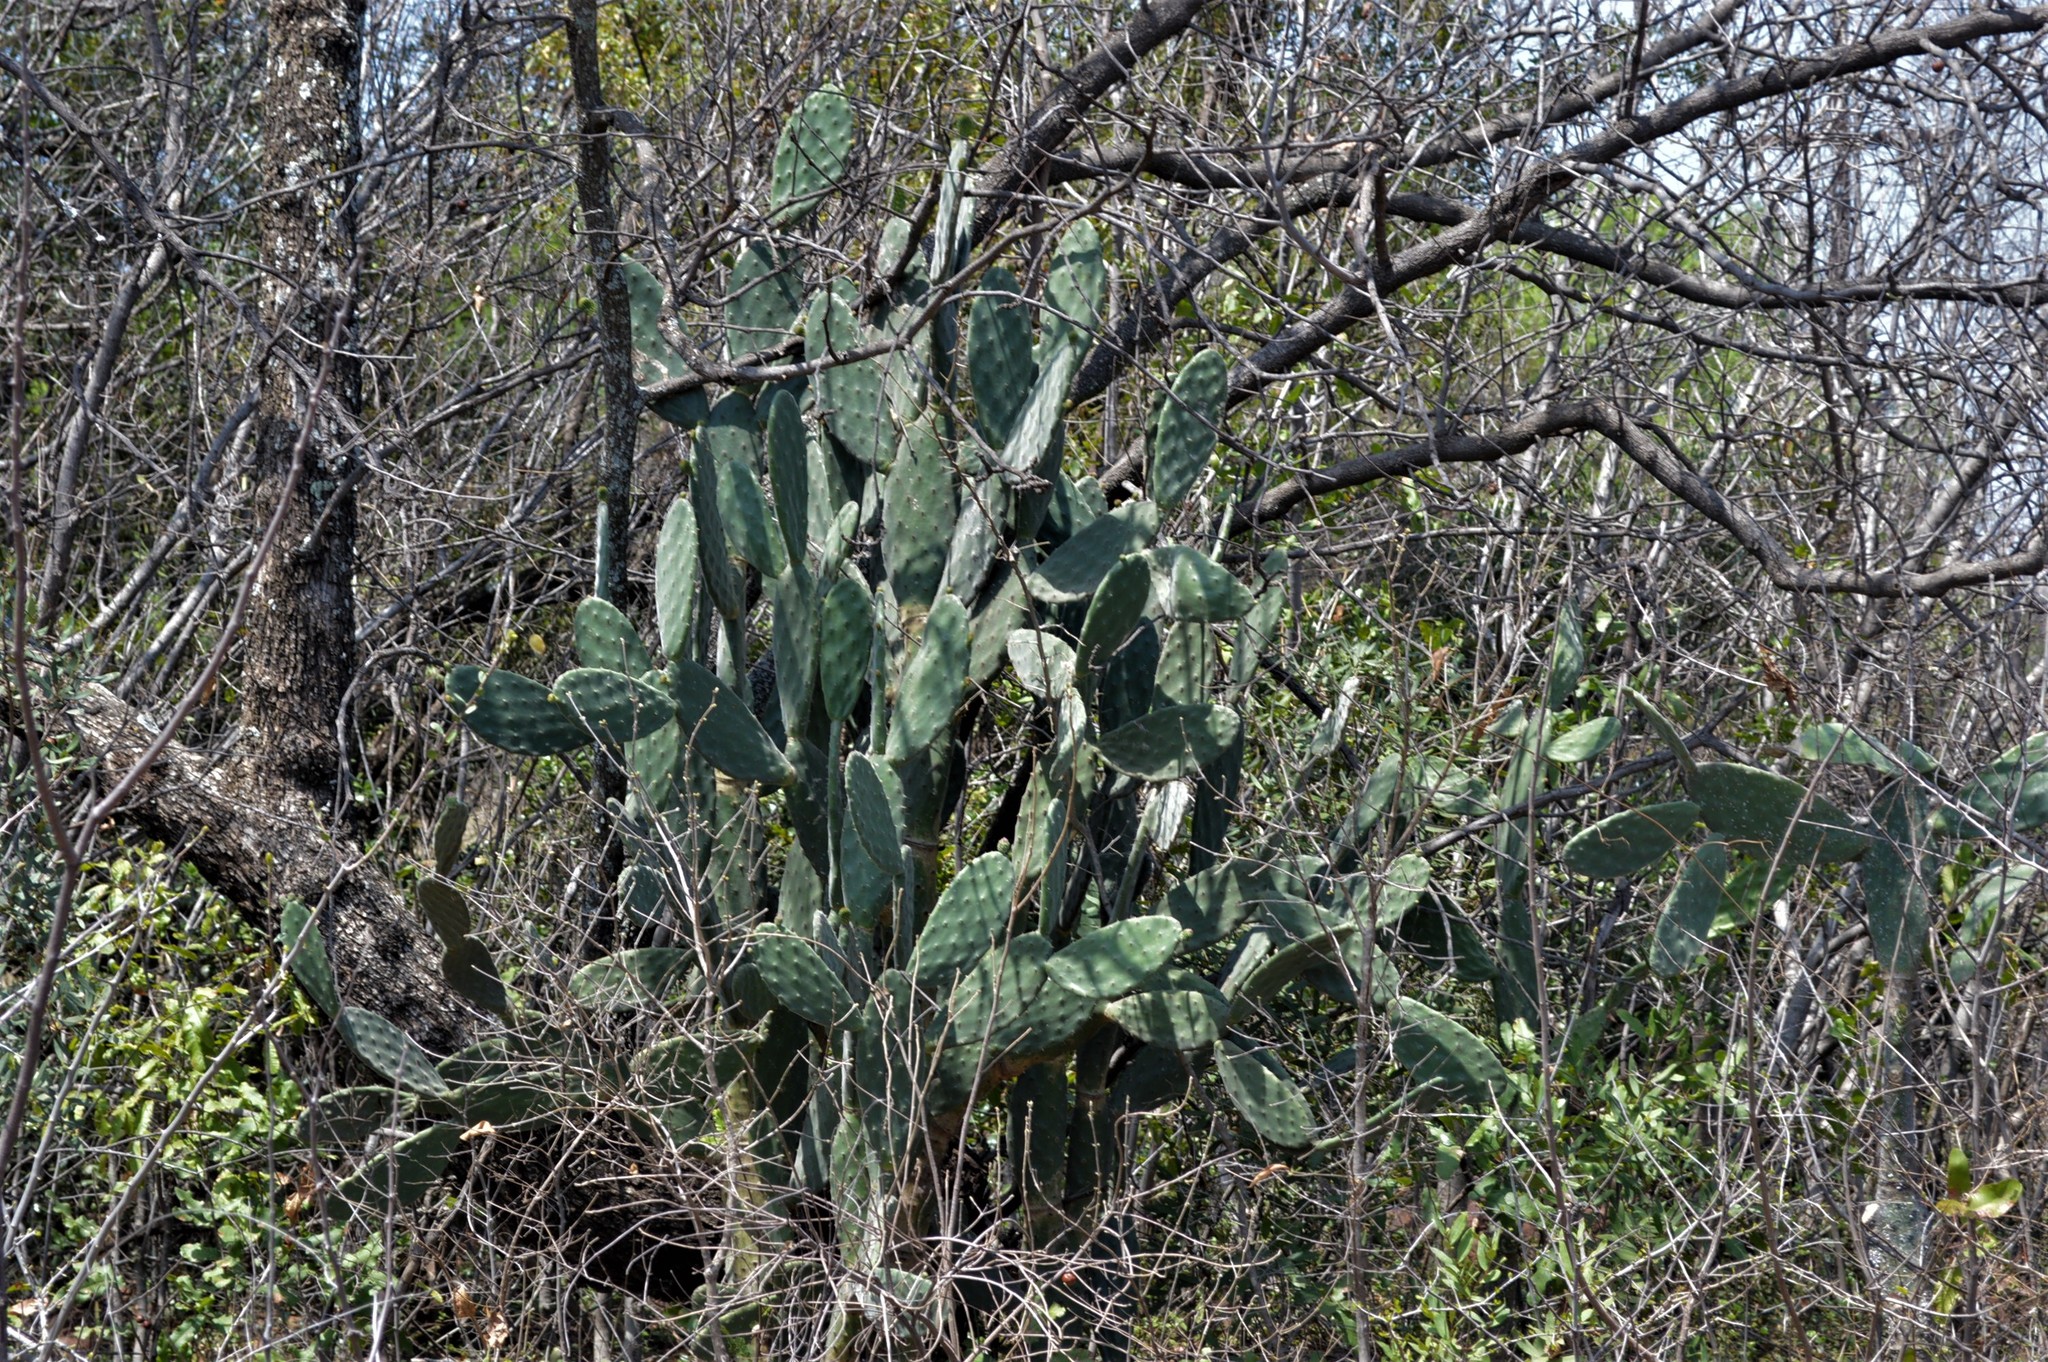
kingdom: Plantae
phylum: Tracheophyta
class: Magnoliopsida
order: Caryophyllales
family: Cactaceae
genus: Opuntia
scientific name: Opuntia tomentosa
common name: Woollyjoint pricklypear
